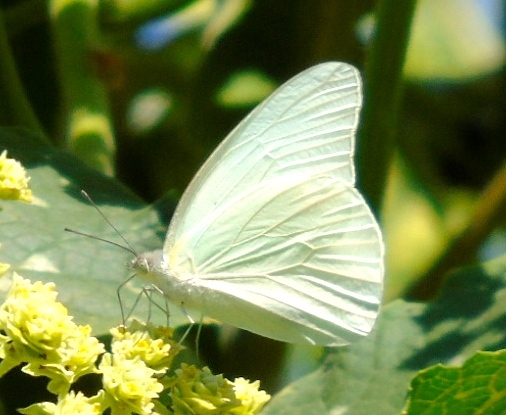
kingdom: Animalia
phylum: Arthropoda
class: Insecta
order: Lepidoptera
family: Pieridae
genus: Glutophrissa
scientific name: Glutophrissa drusilla
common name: Florida white
